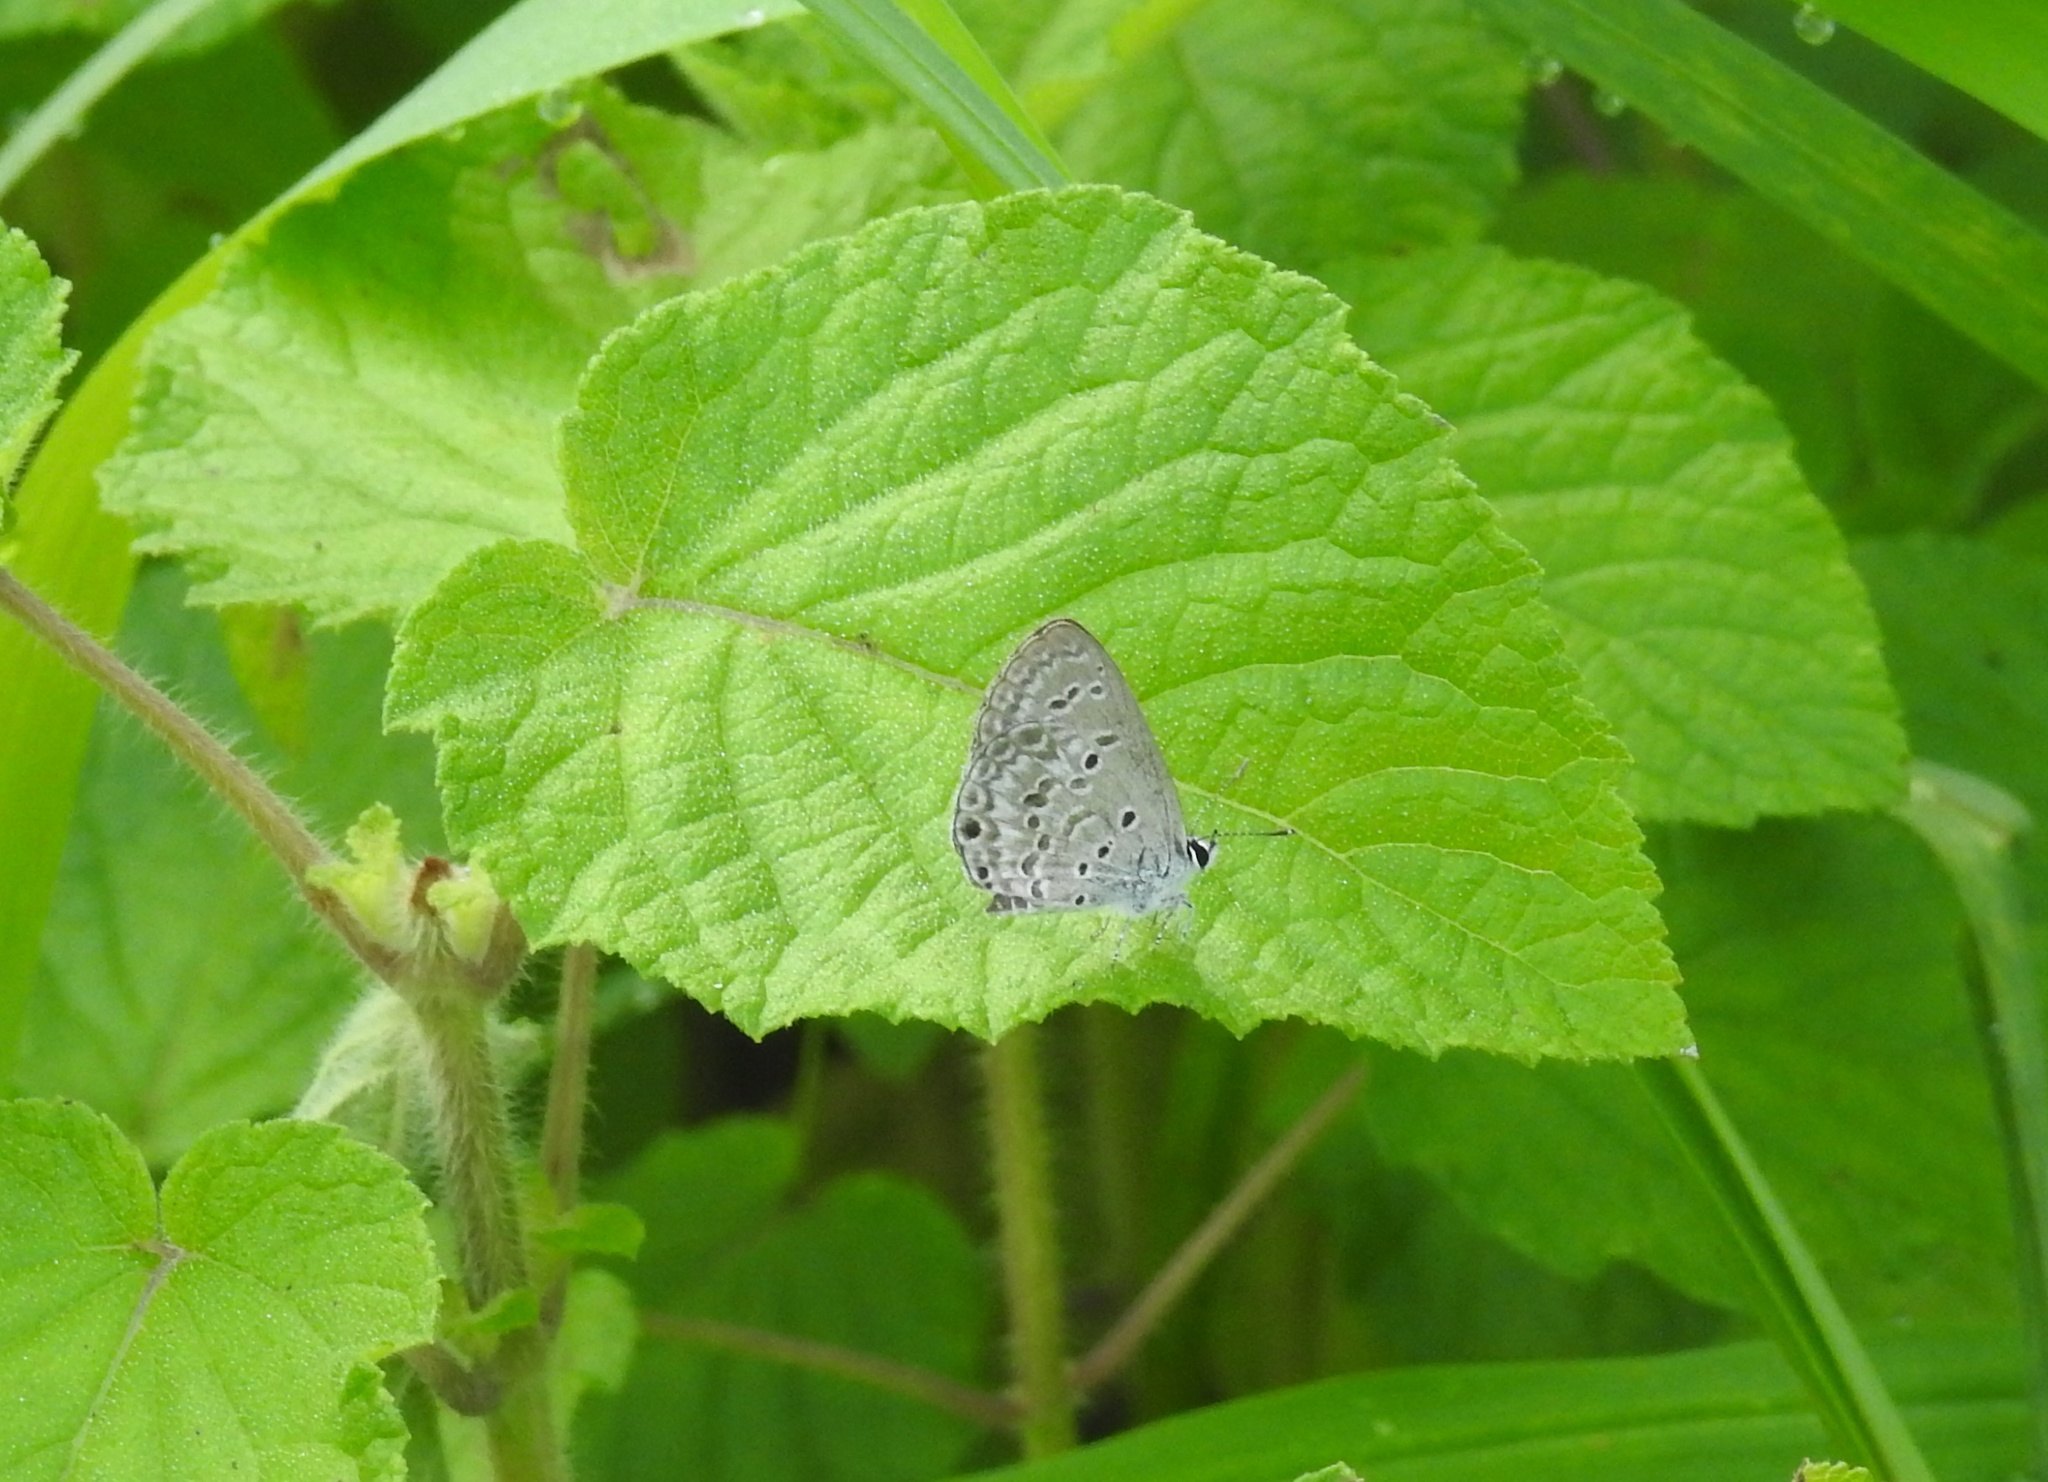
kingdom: Animalia
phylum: Arthropoda
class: Insecta
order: Lepidoptera
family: Lycaenidae
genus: Chilades
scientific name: Chilades laius
